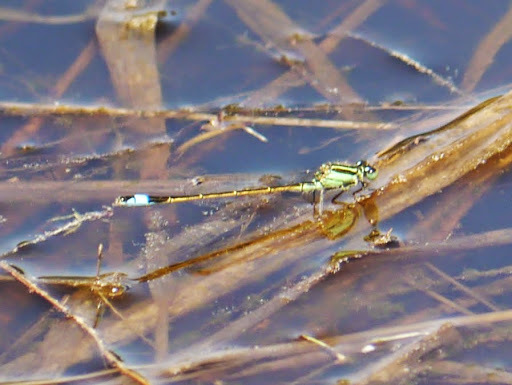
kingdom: Animalia
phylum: Arthropoda
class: Insecta
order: Odonata
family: Coenagrionidae
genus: Ischnura
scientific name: Ischnura ramburii
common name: Rambur's forktail
